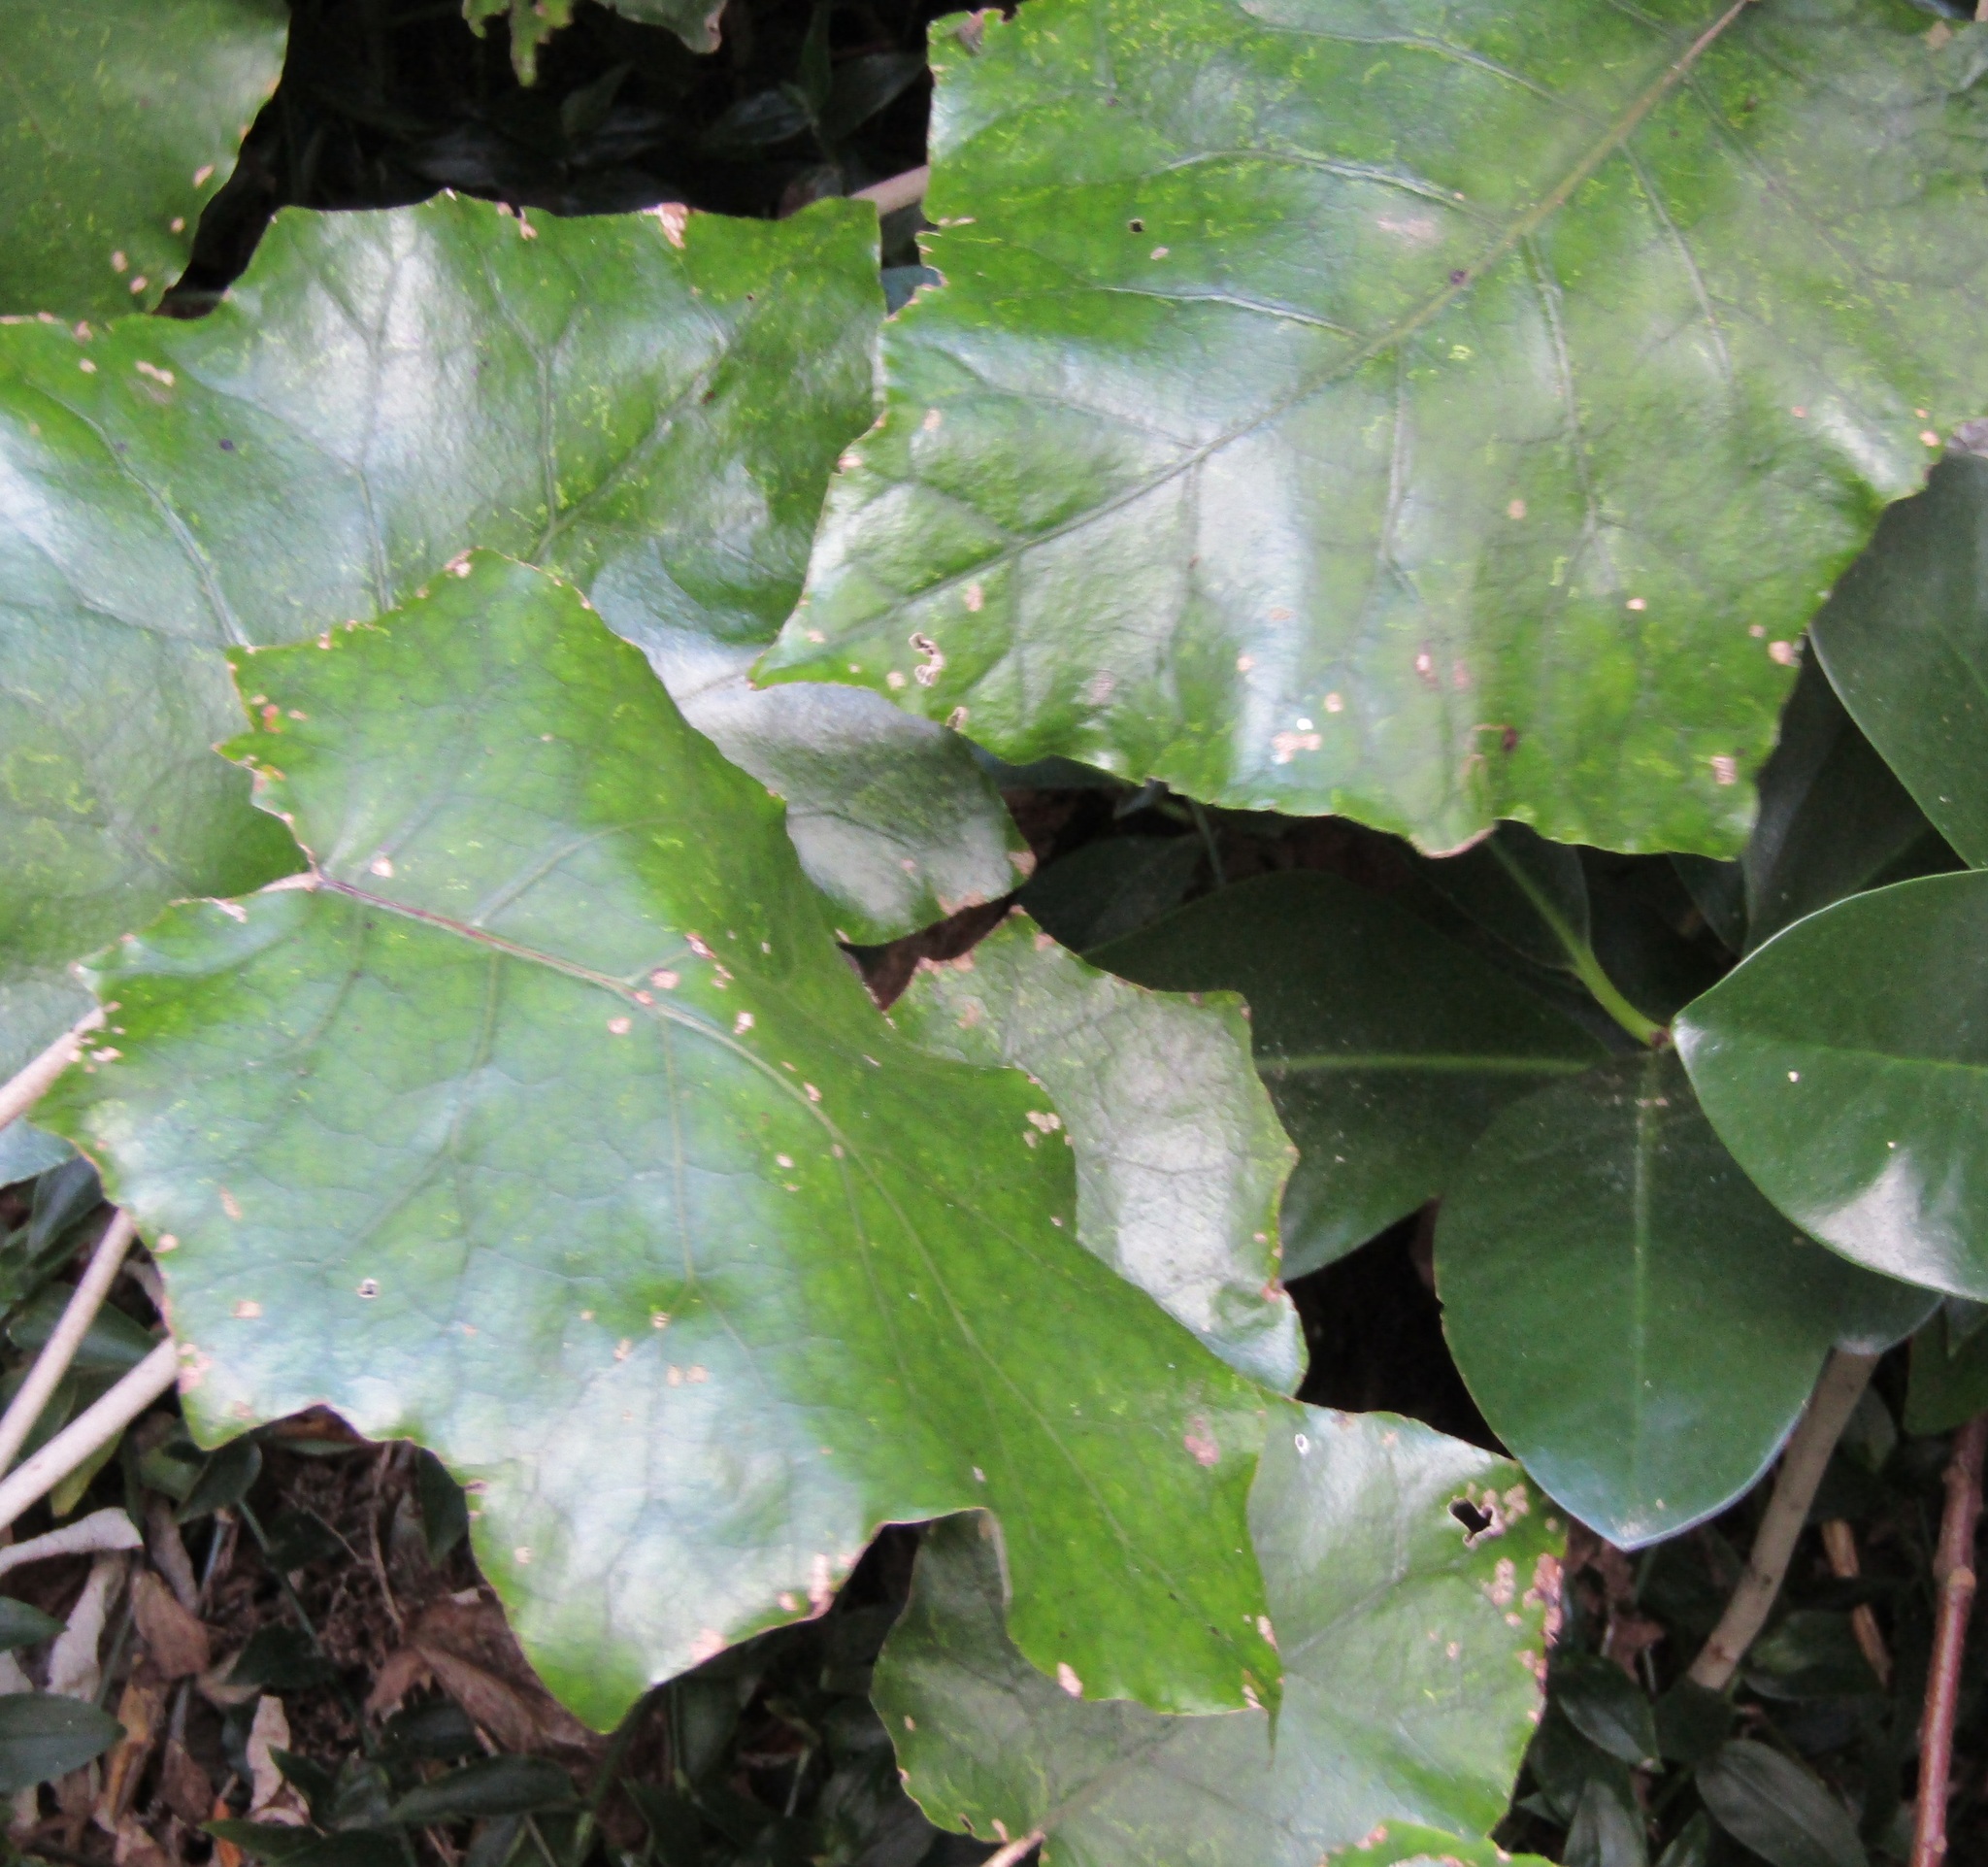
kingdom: Plantae
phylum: Tracheophyta
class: Magnoliopsida
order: Asterales
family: Asteraceae
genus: Brachyglottis
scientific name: Brachyglottis repanda
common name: Hedge ragwort
